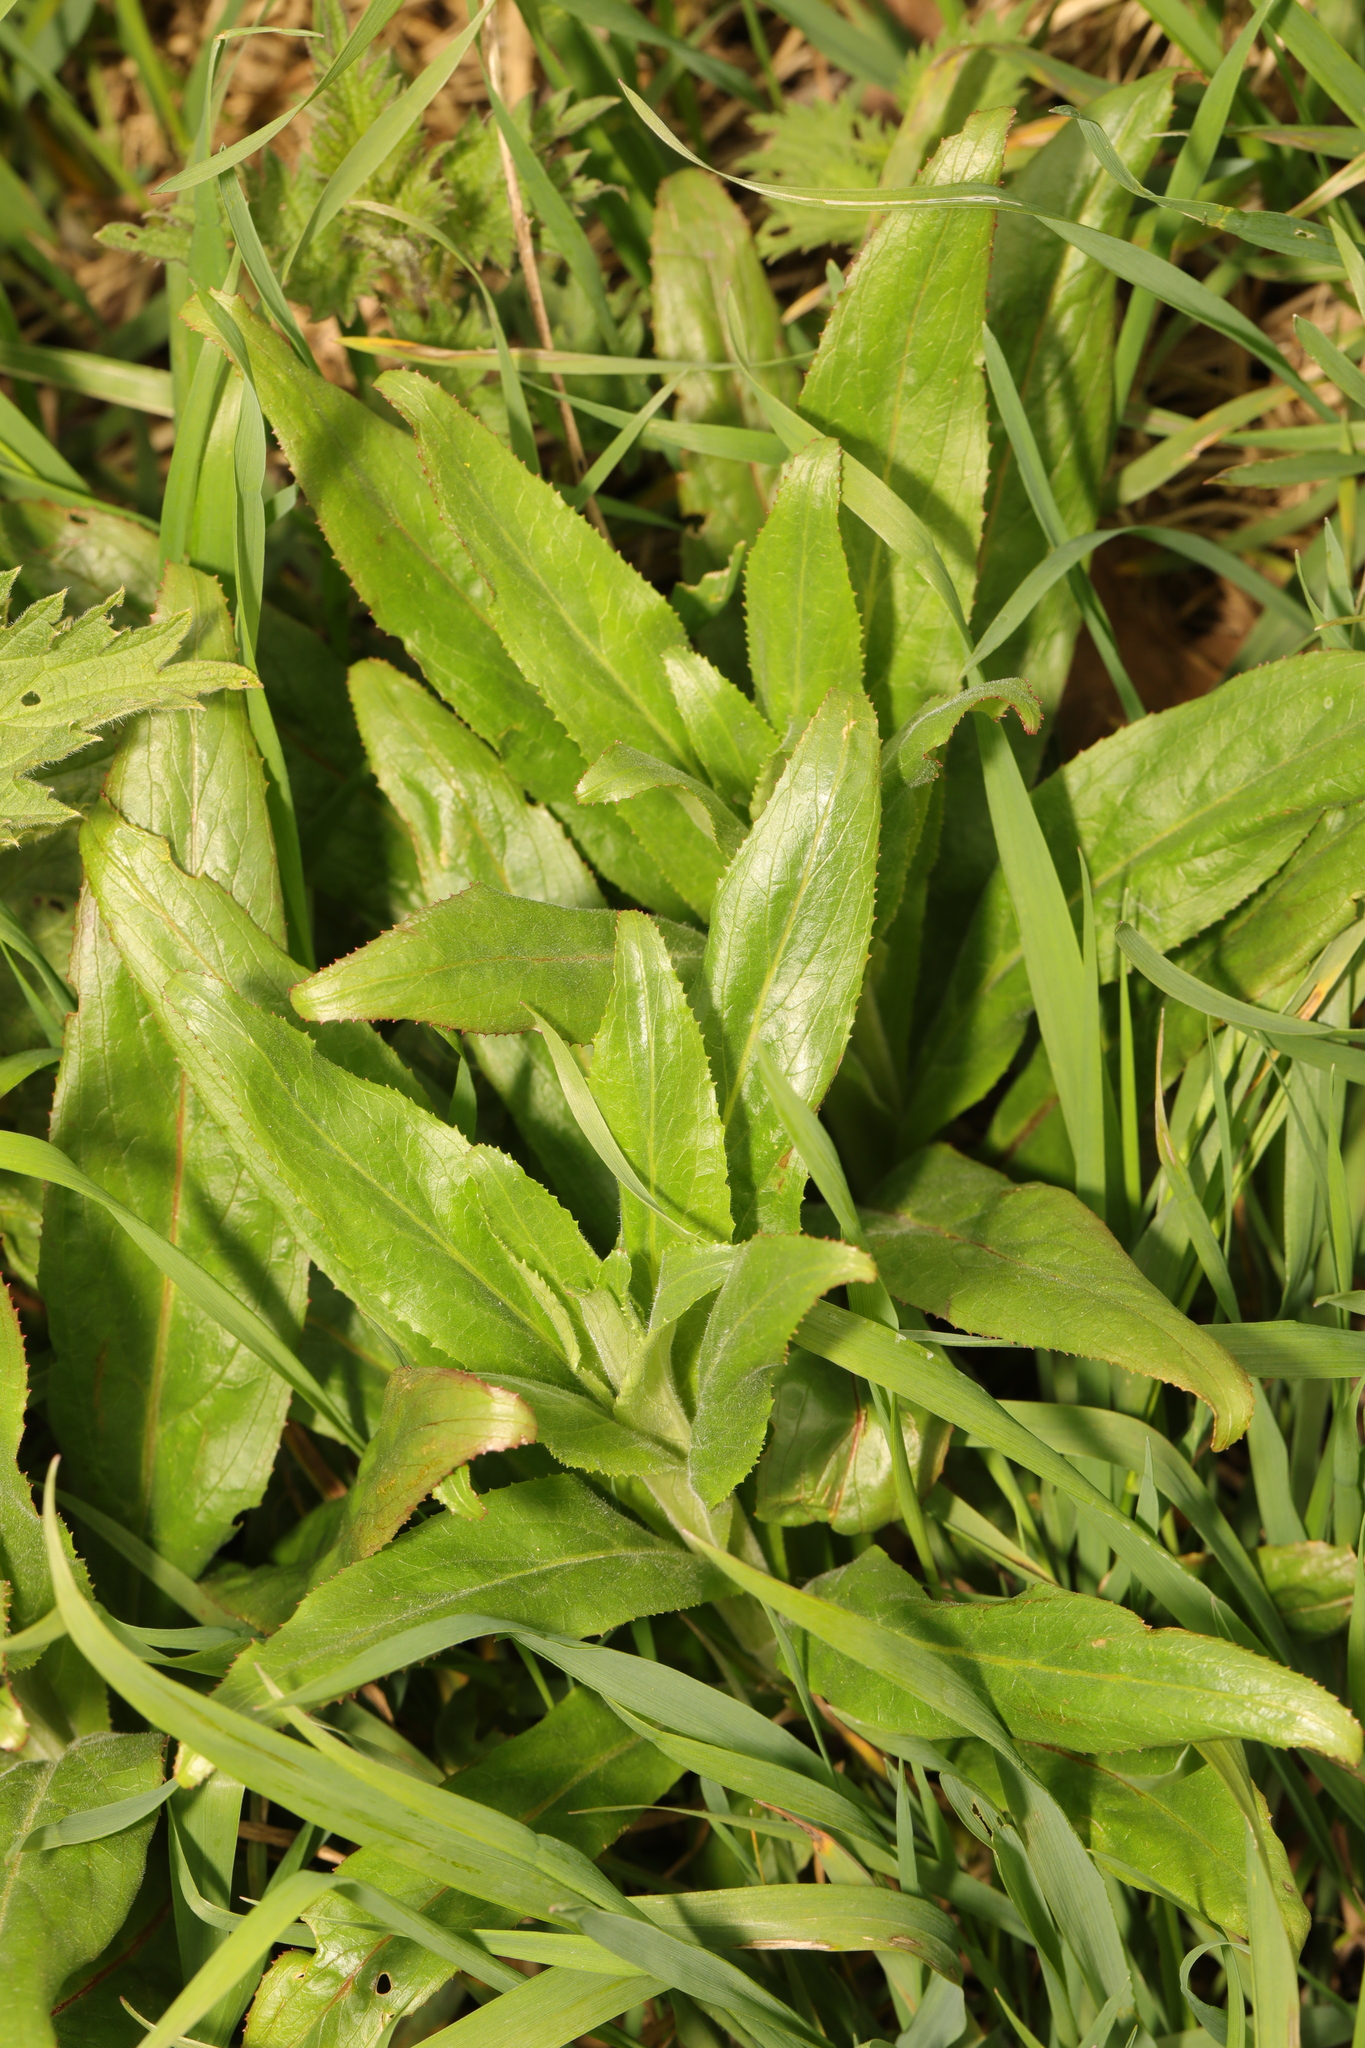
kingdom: Plantae
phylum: Tracheophyta
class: Magnoliopsida
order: Myrtales
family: Onagraceae
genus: Epilobium
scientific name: Epilobium hirsutum
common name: Great willowherb
